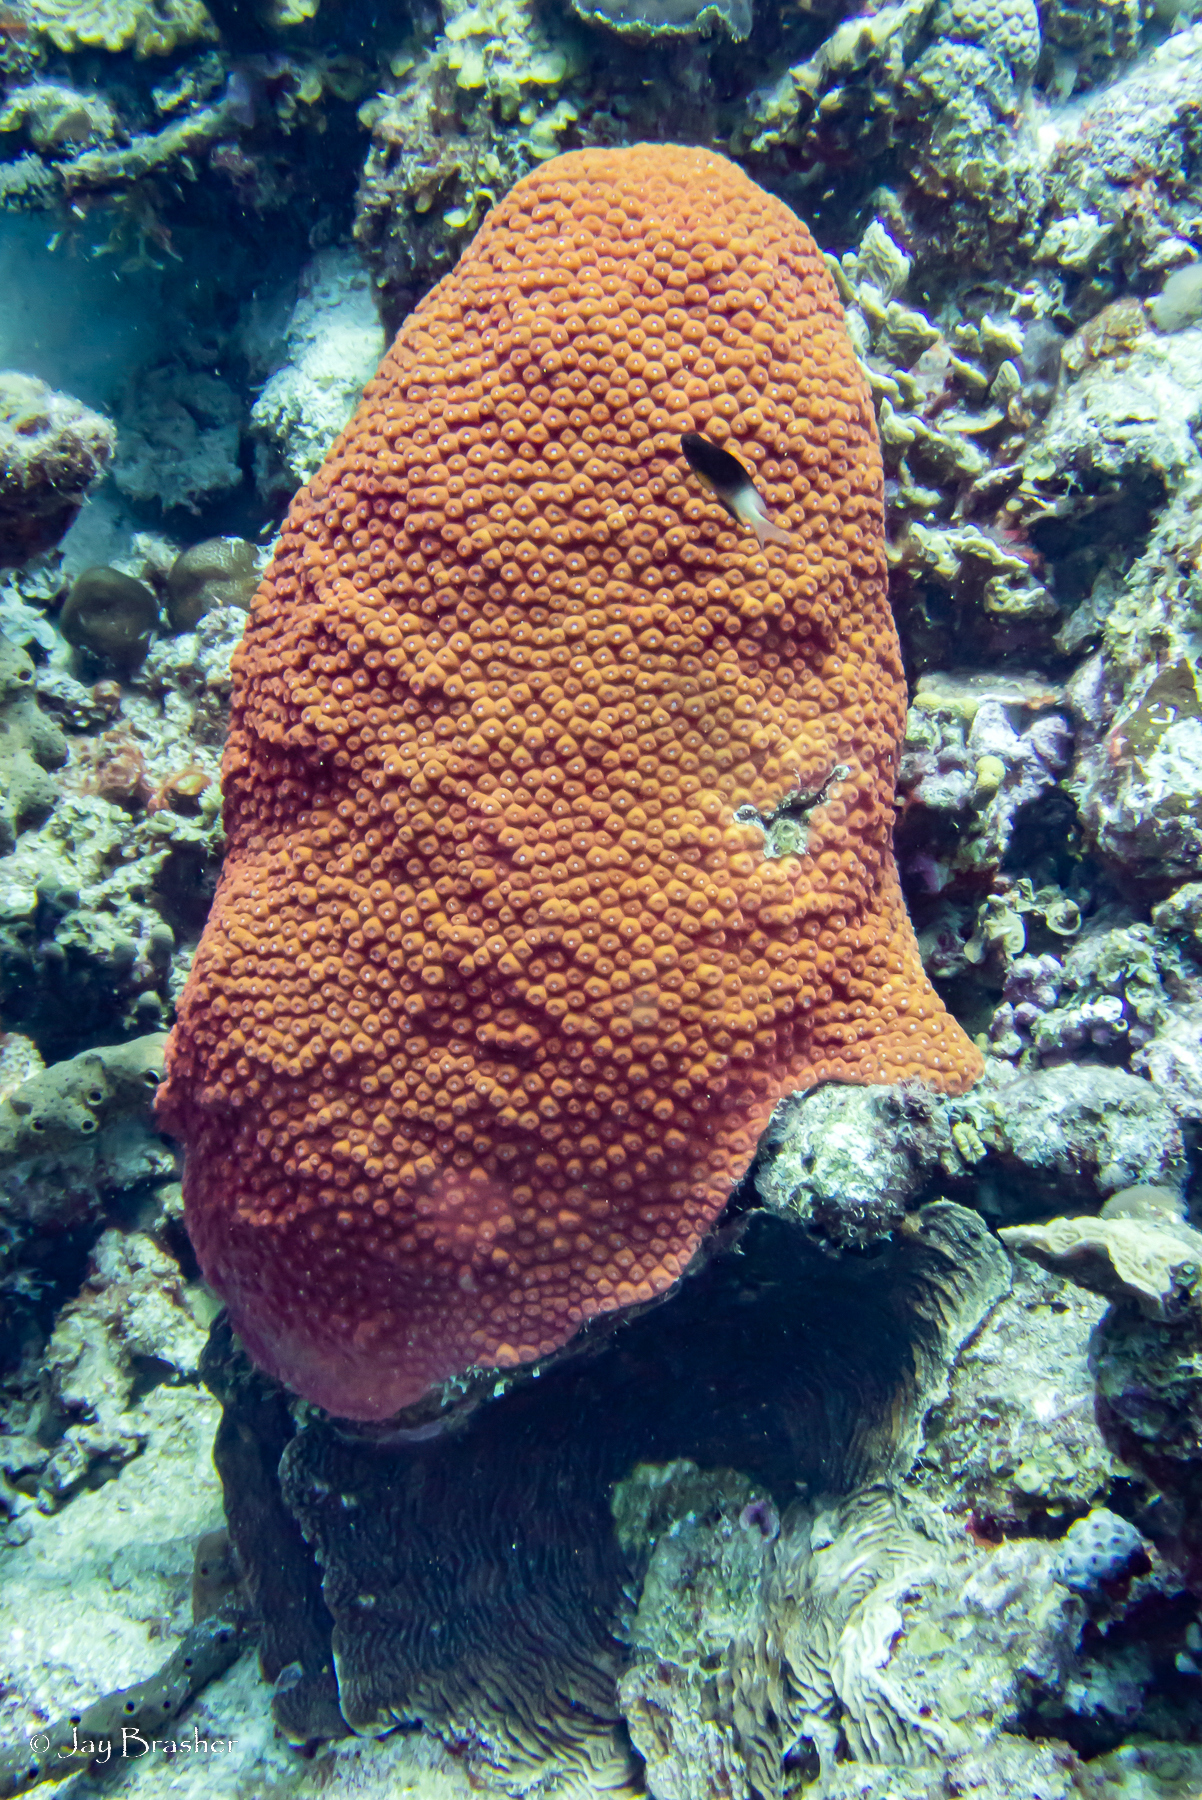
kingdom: Animalia
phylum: Chordata
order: Perciformes
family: Pomacentridae
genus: Stegastes
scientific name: Stegastes partitus
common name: Bicolor damselfish
